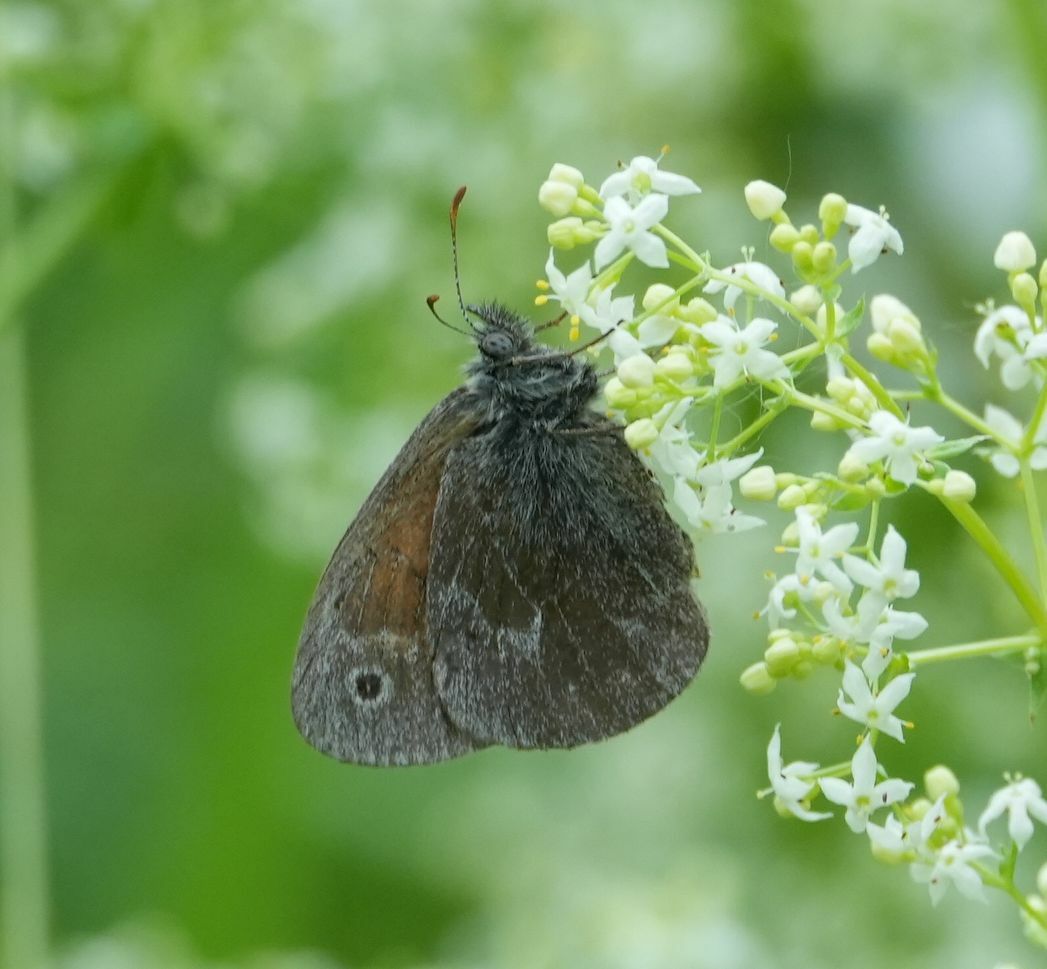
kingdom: Animalia
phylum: Arthropoda
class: Insecta
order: Lepidoptera
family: Nymphalidae
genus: Coenonympha
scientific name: Coenonympha california
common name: Common ringlet
